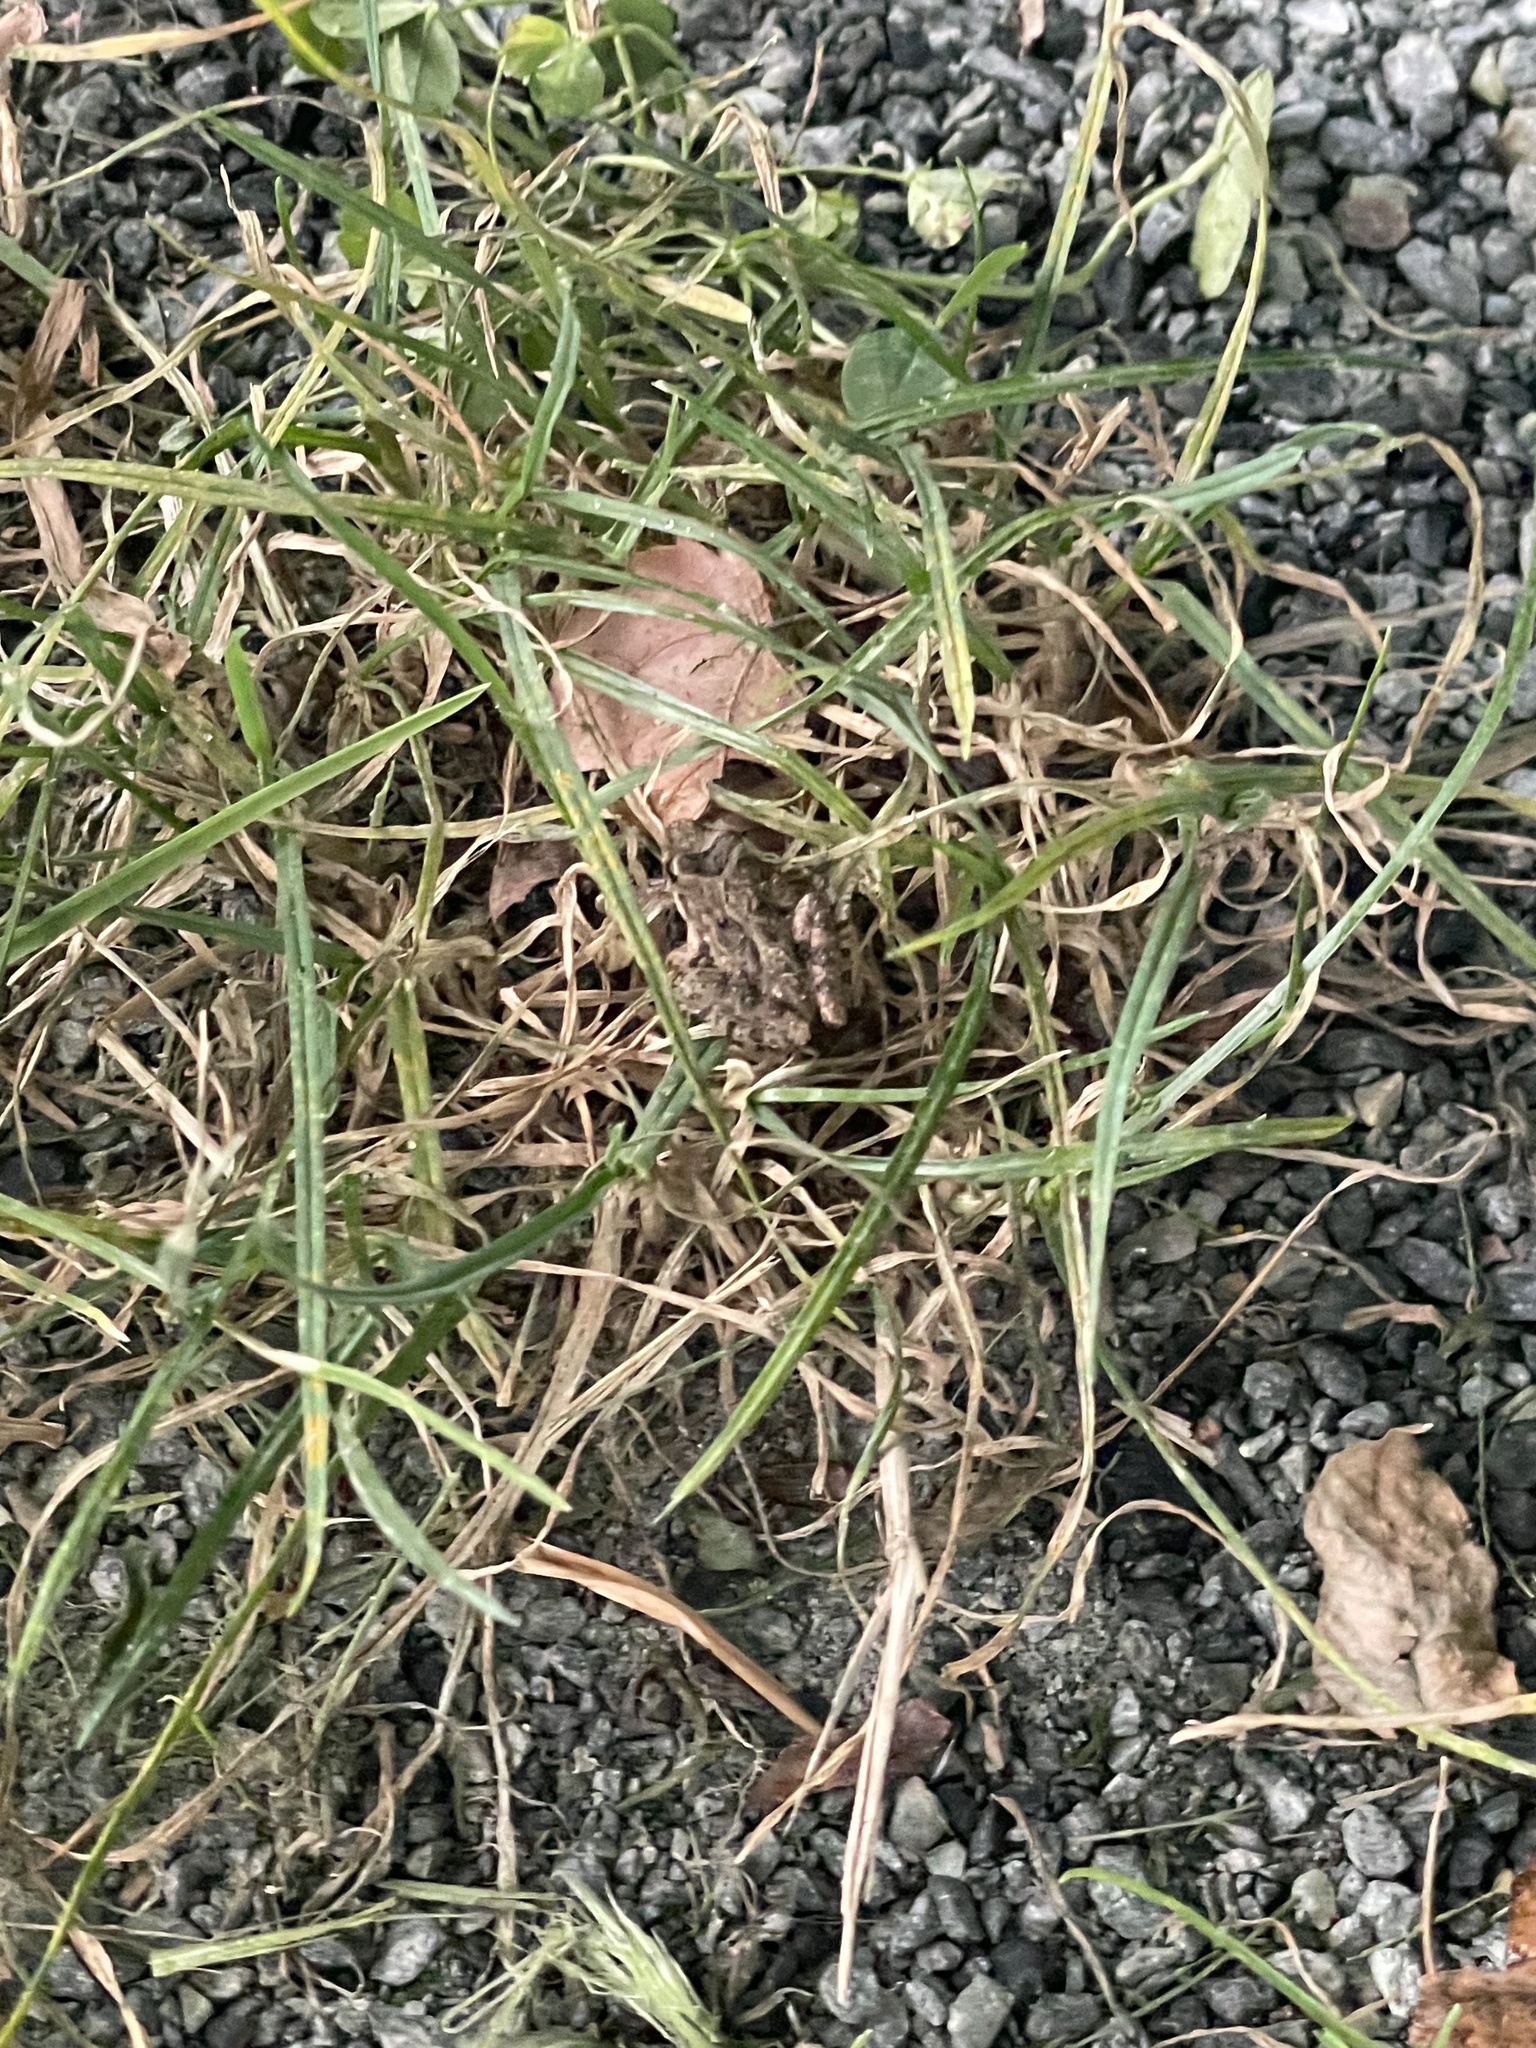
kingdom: Animalia
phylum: Chordata
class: Amphibia
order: Anura
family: Hylidae
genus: Acris
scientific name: Acris crepitans
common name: Northern cricket frog
